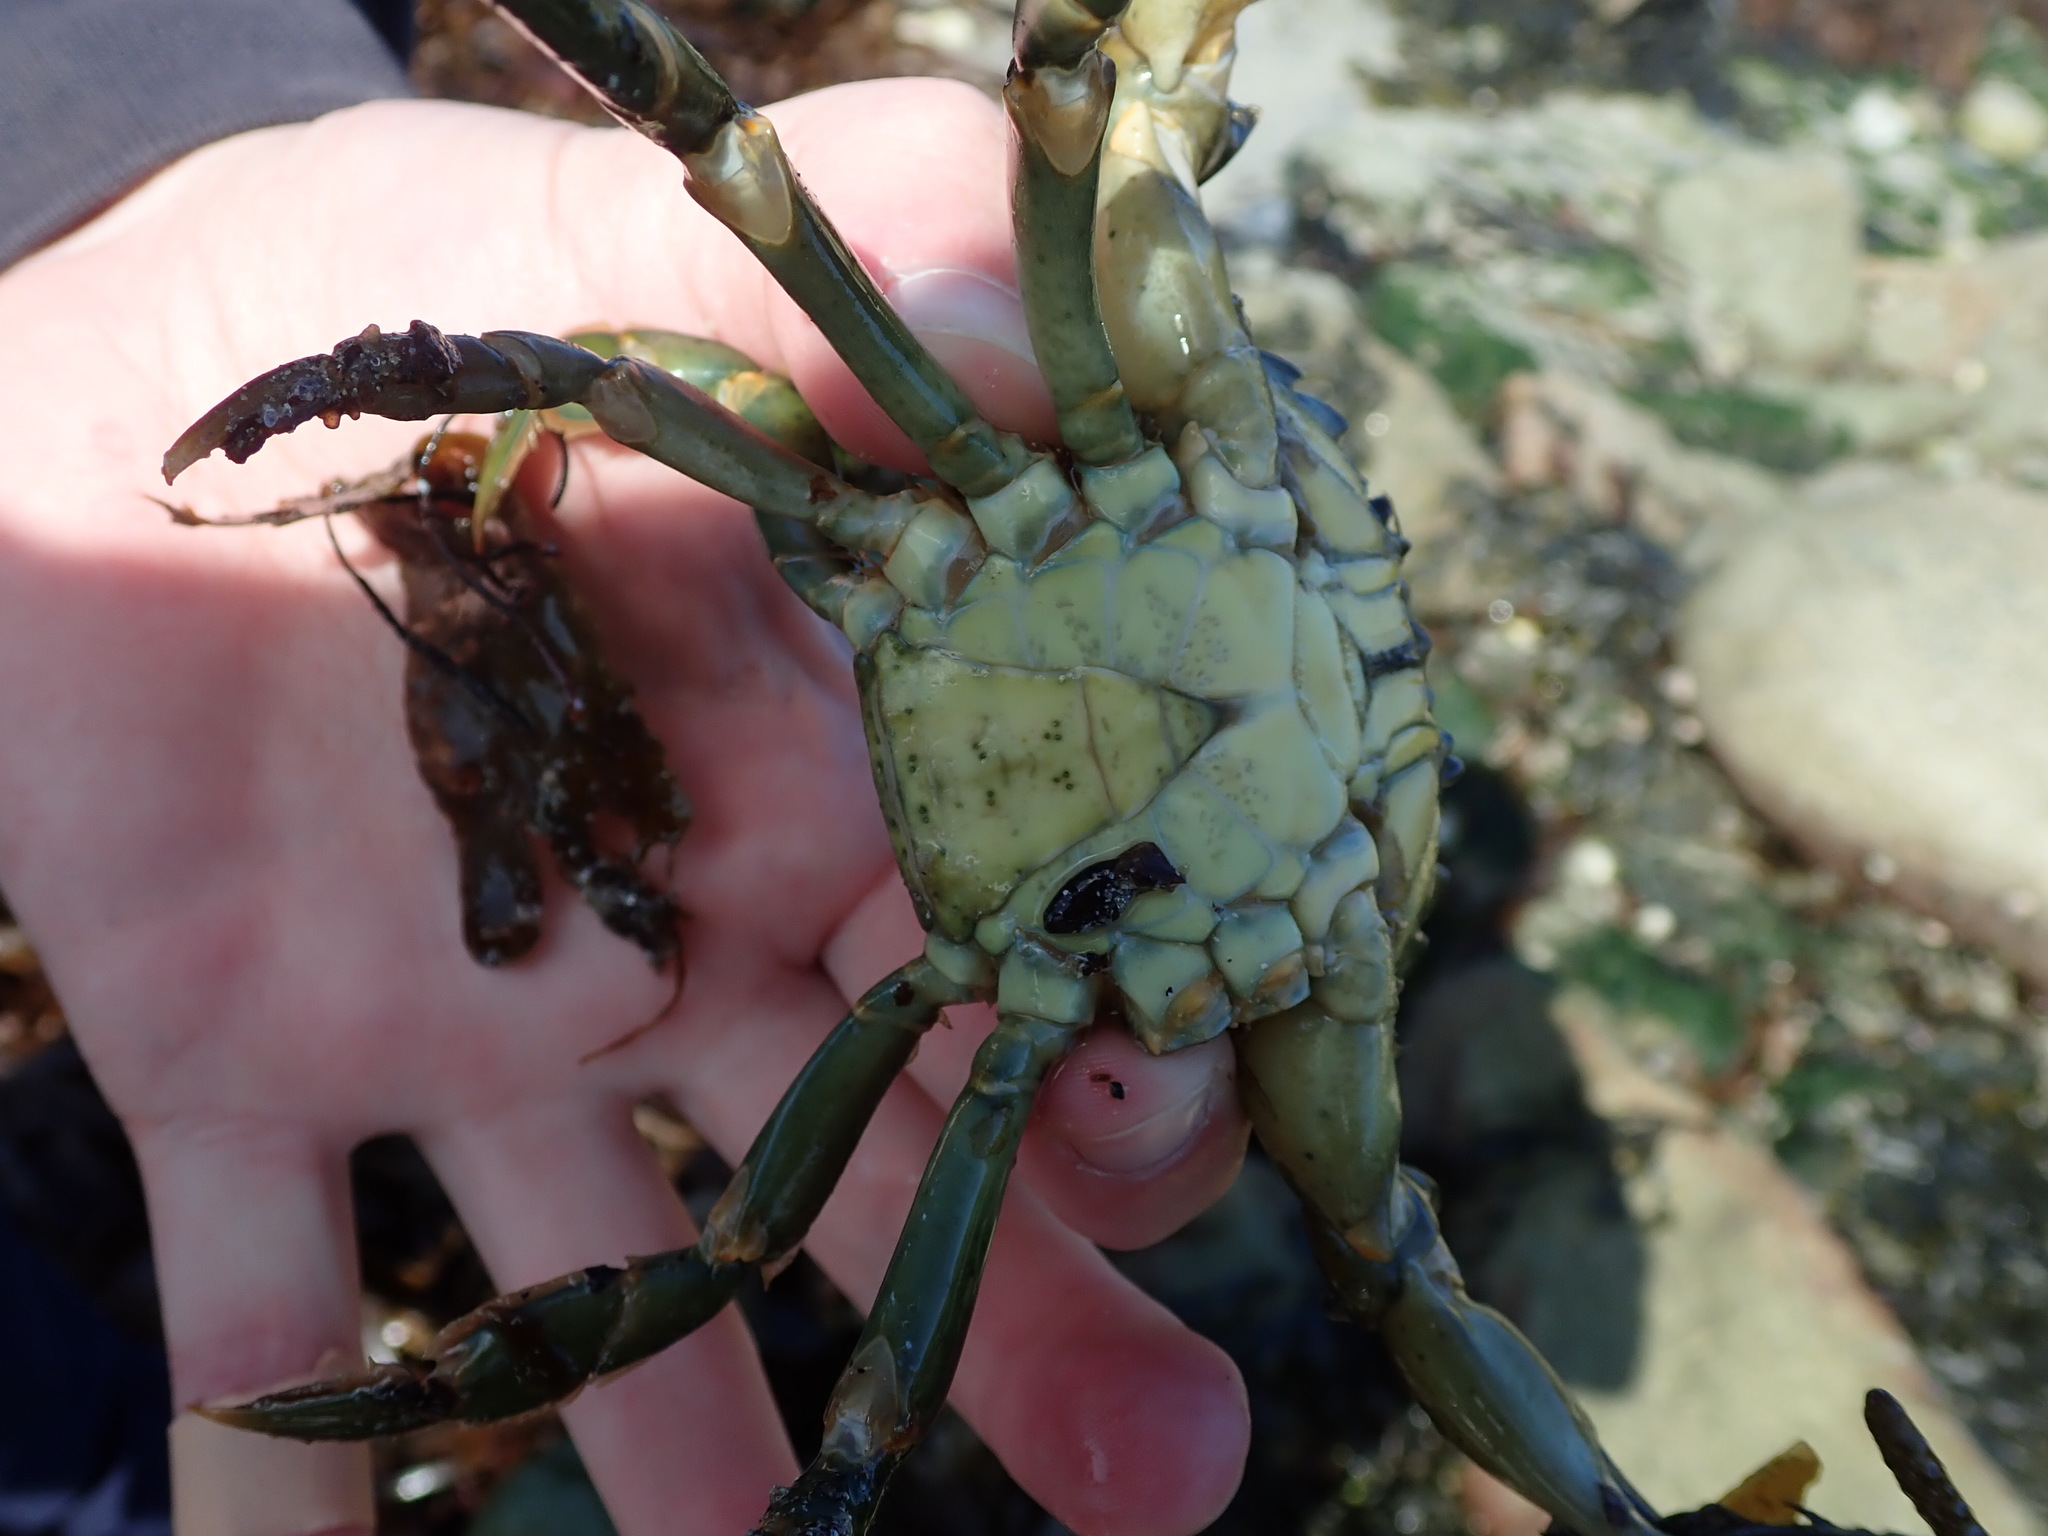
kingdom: Animalia
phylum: Arthropoda
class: Malacostraca
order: Decapoda
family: Carcinidae
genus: Carcinus
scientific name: Carcinus maenas
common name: European green crab
